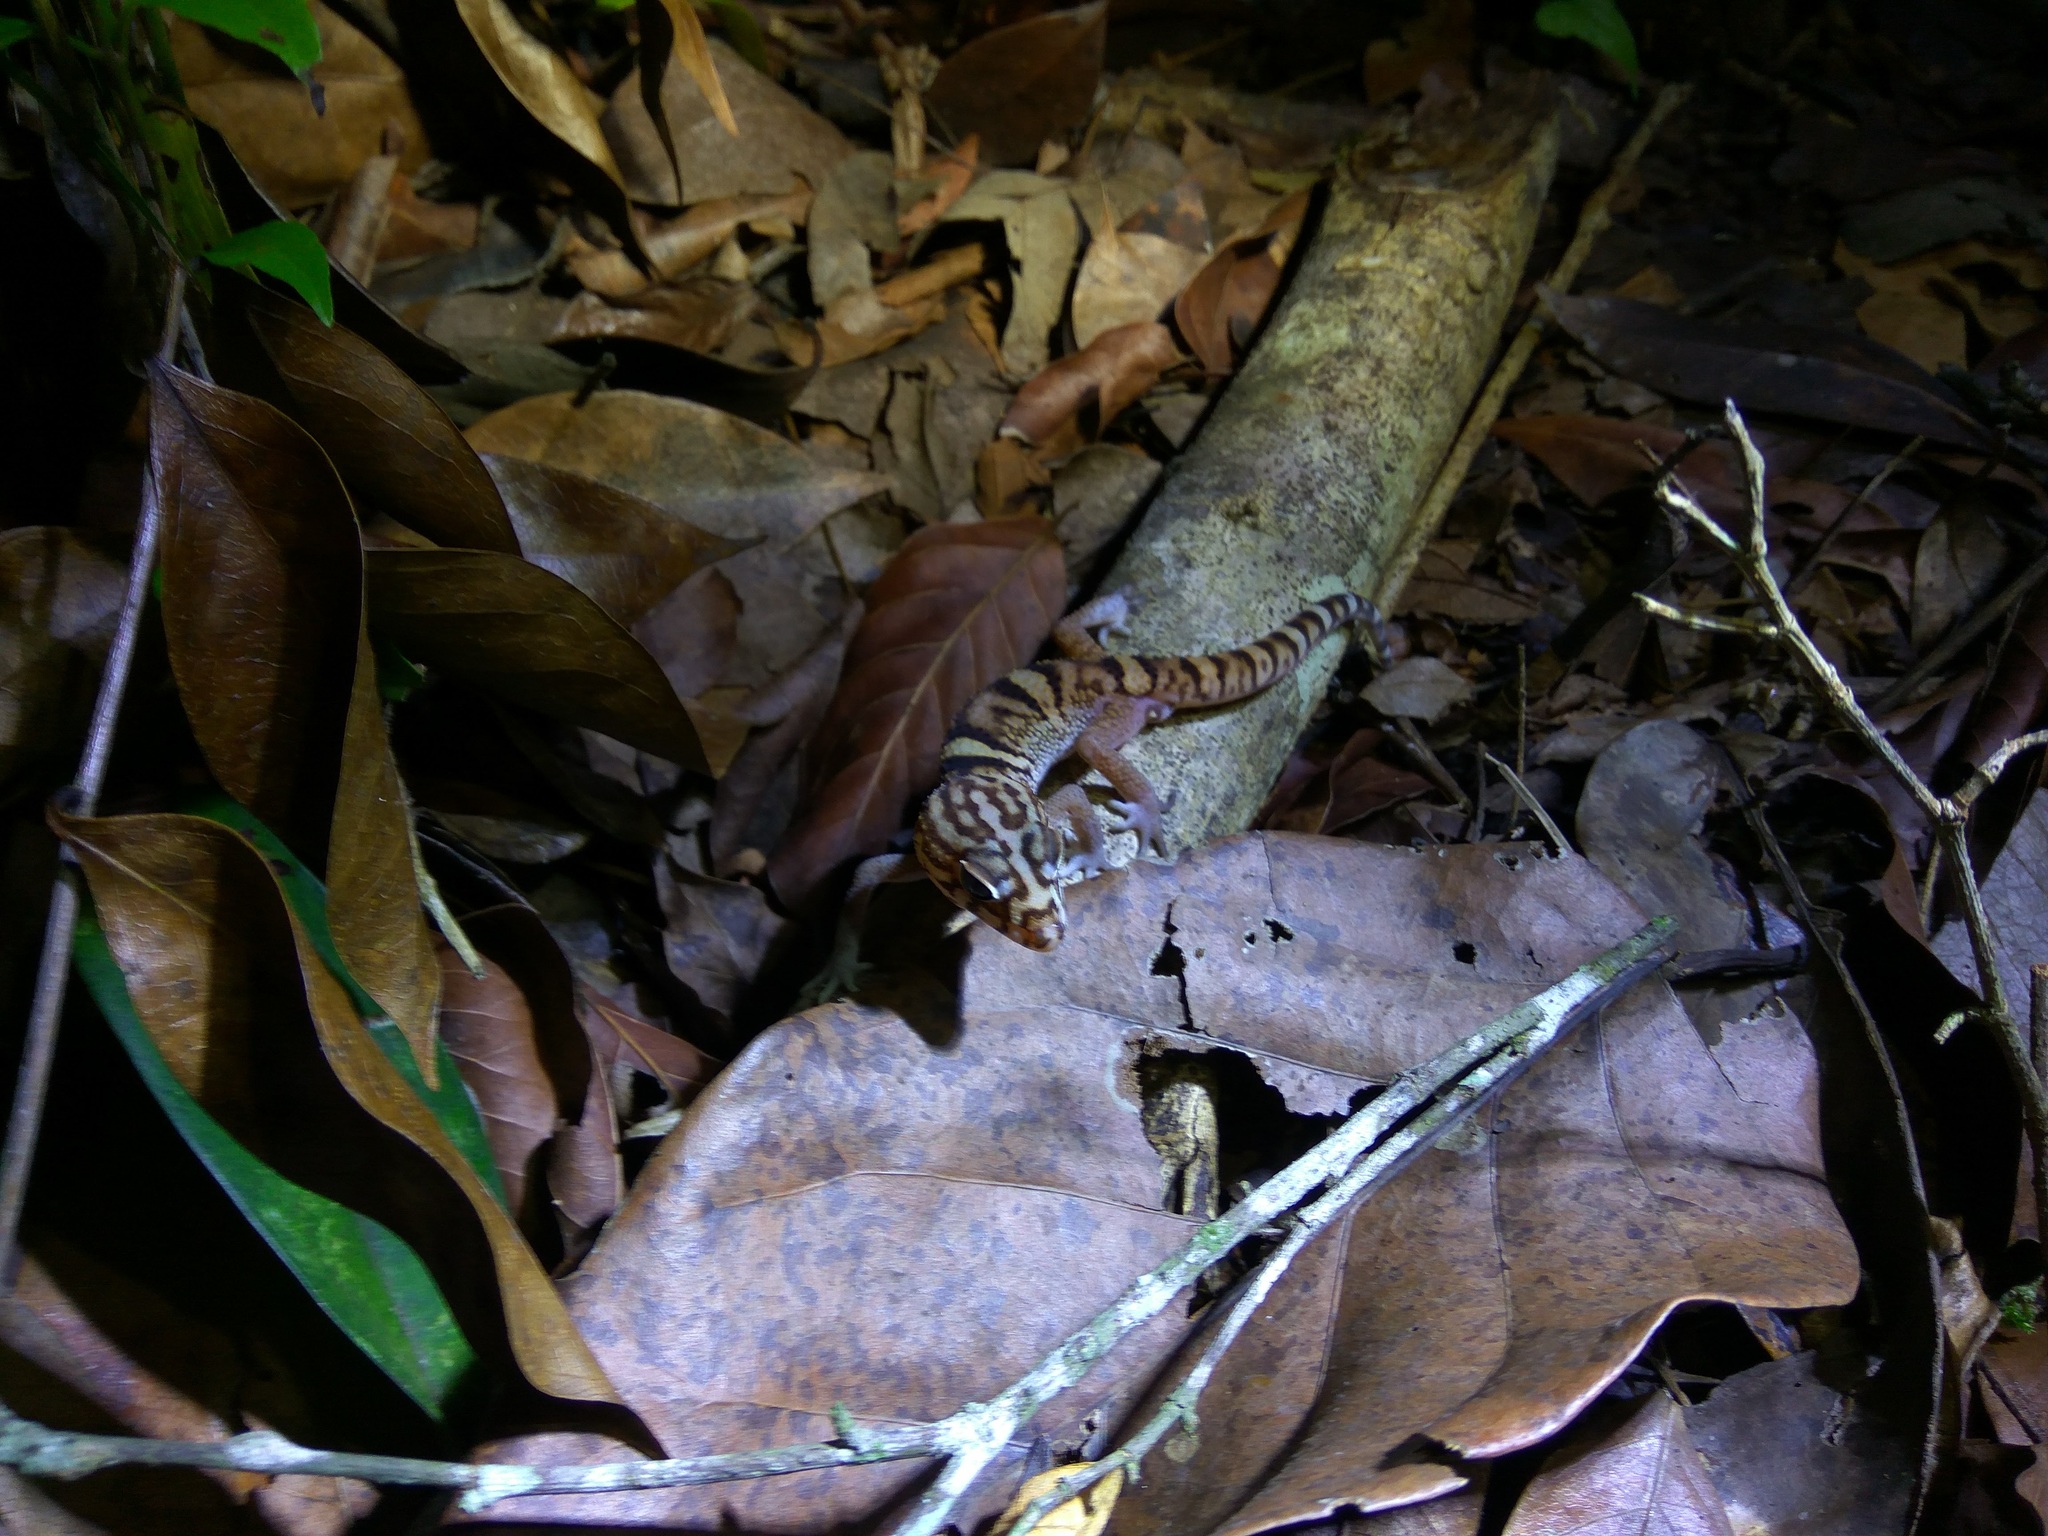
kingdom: Animalia
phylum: Chordata
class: Squamata
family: Eublepharidae
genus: Coleonyx
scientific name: Coleonyx elegans
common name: Yucatan banded gecko
